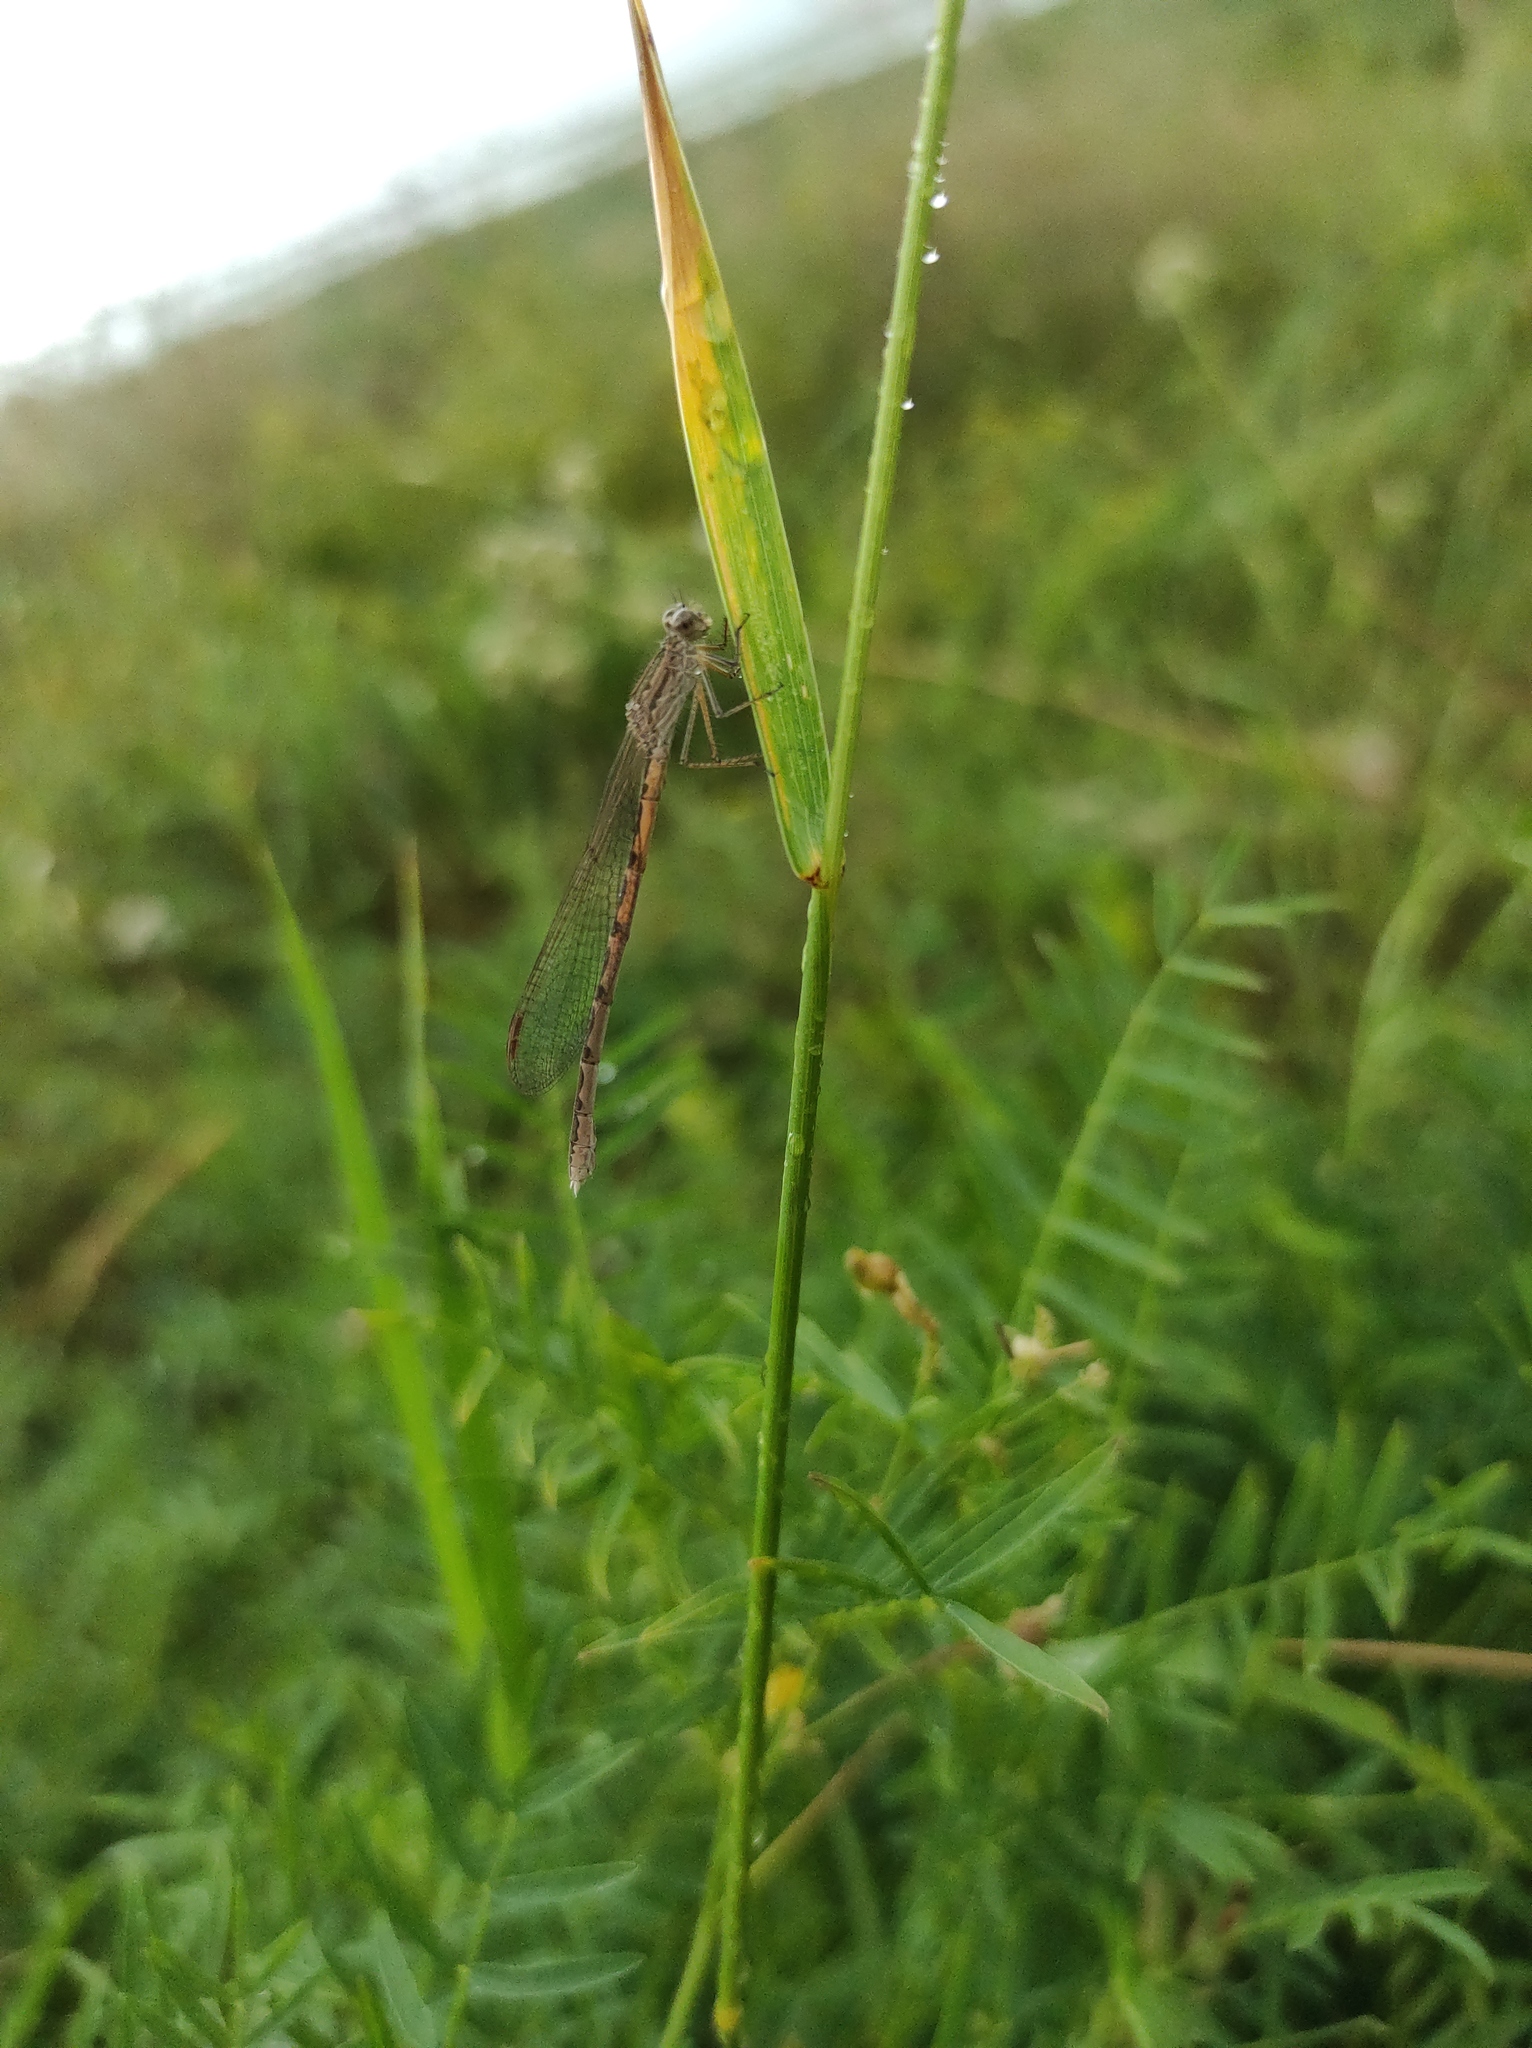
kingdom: Animalia
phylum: Arthropoda
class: Insecta
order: Odonata
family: Lestidae
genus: Sympecma
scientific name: Sympecma paedisca
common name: Siberian winter damsel
